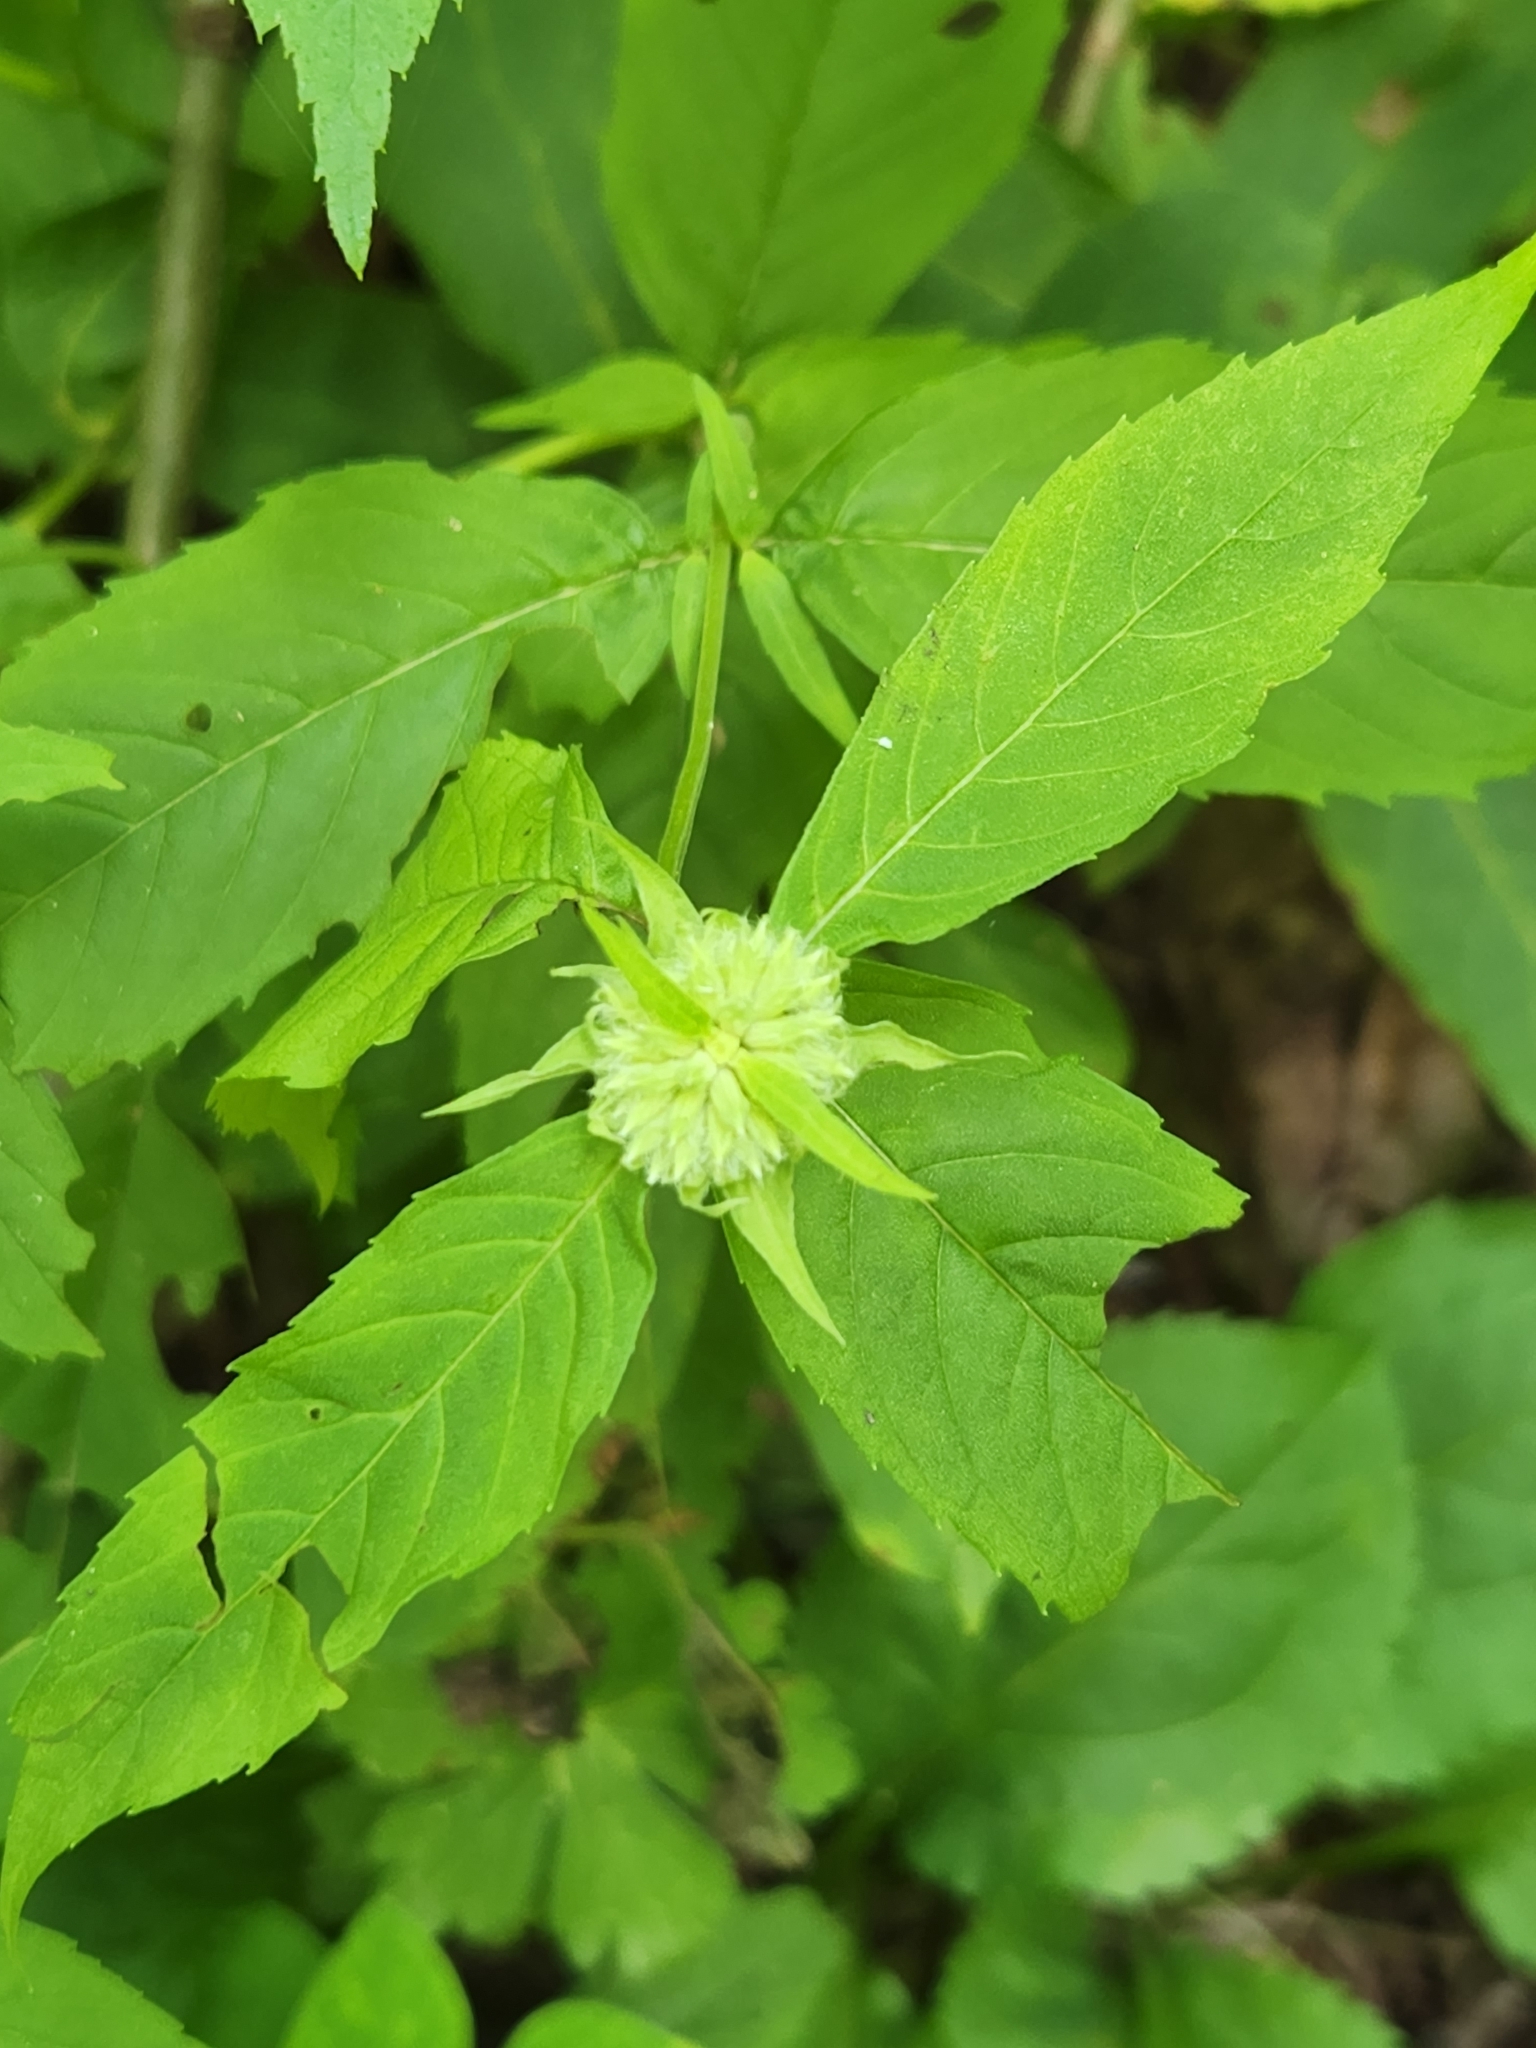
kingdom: Plantae
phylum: Tracheophyta
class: Magnoliopsida
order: Lamiales
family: Lamiaceae
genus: Monarda
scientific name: Monarda clinopodia
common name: Basil beebalm
